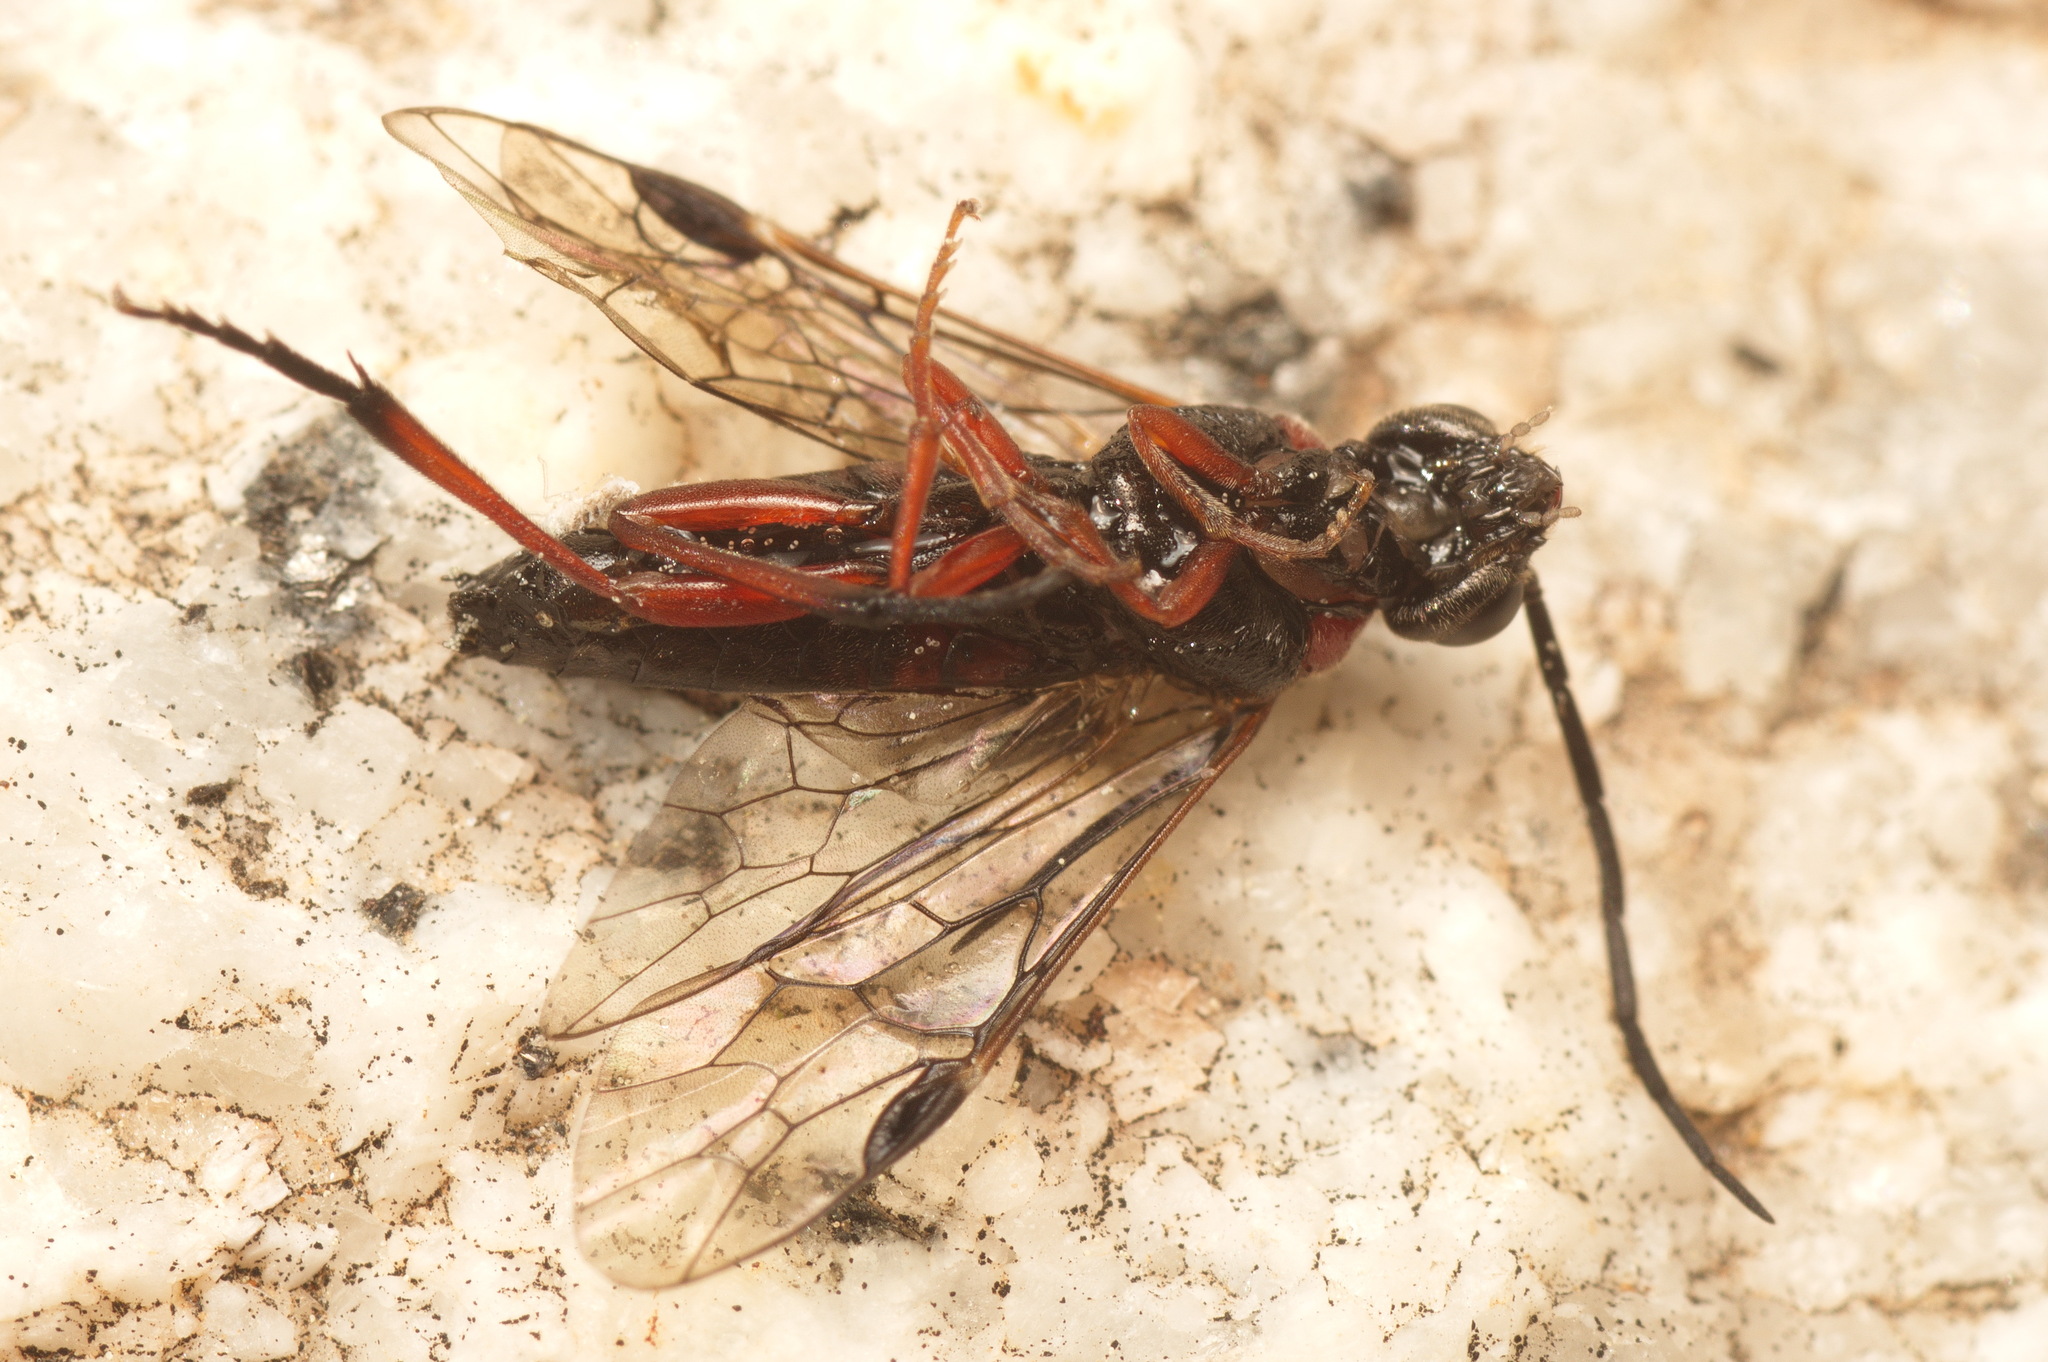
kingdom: Animalia
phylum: Arthropoda
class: Insecta
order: Hymenoptera
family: Tenthredinidae
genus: Nematus
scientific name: Nematus lucidus
